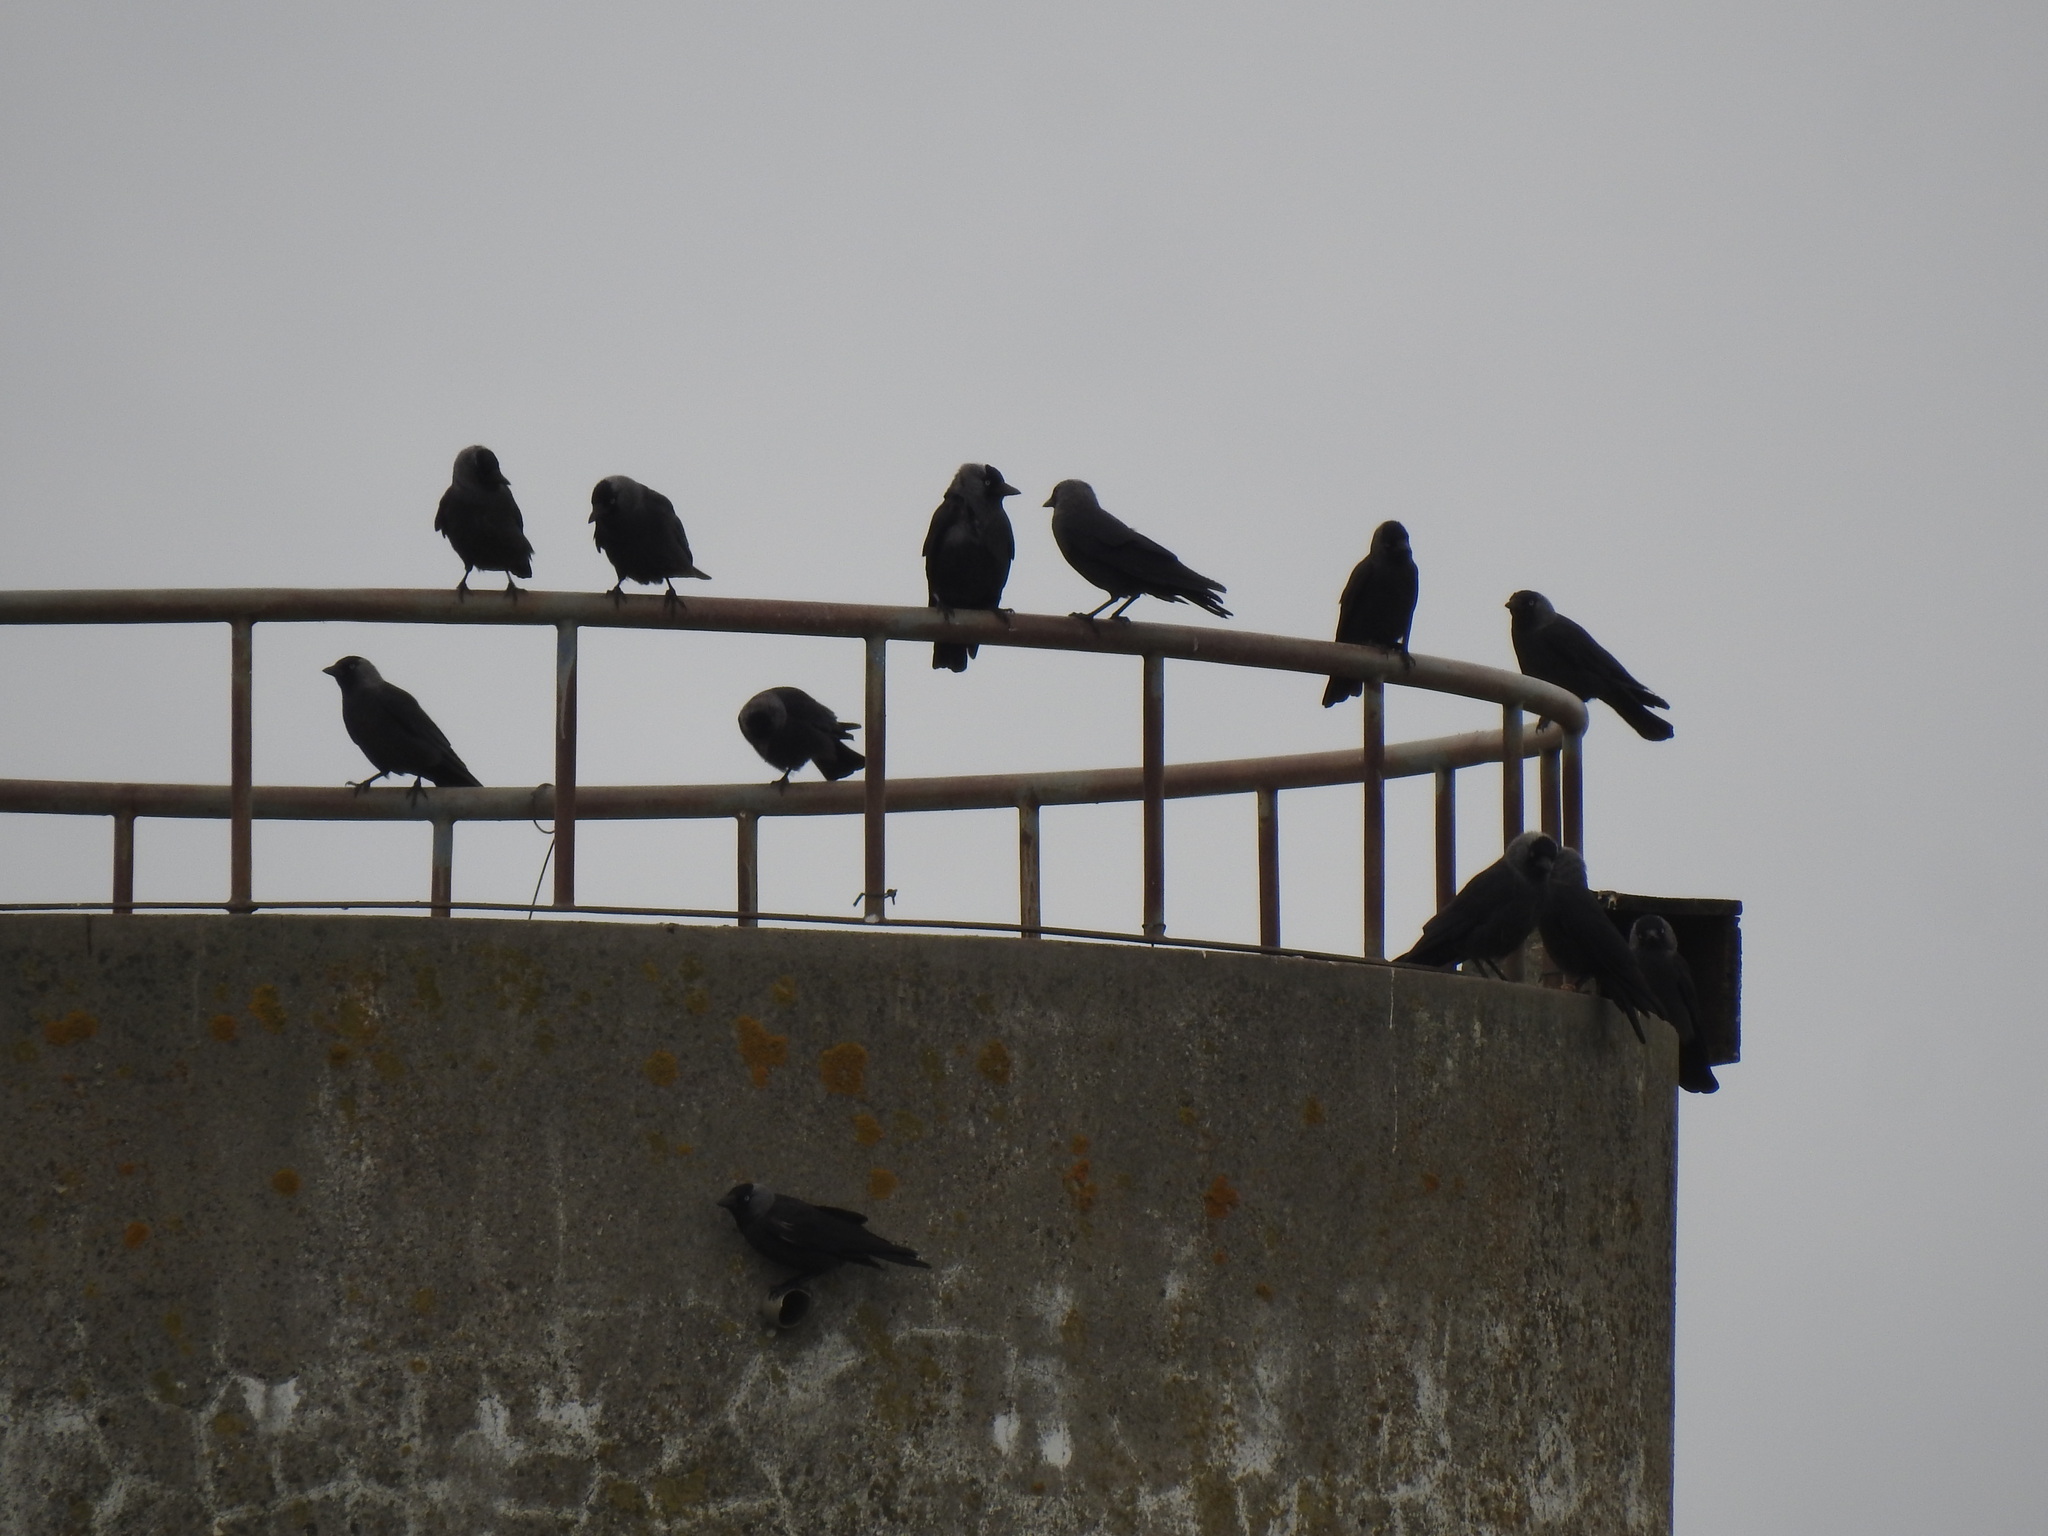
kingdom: Animalia
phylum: Chordata
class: Aves
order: Passeriformes
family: Corvidae
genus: Coloeus
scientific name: Coloeus monedula
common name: Western jackdaw
